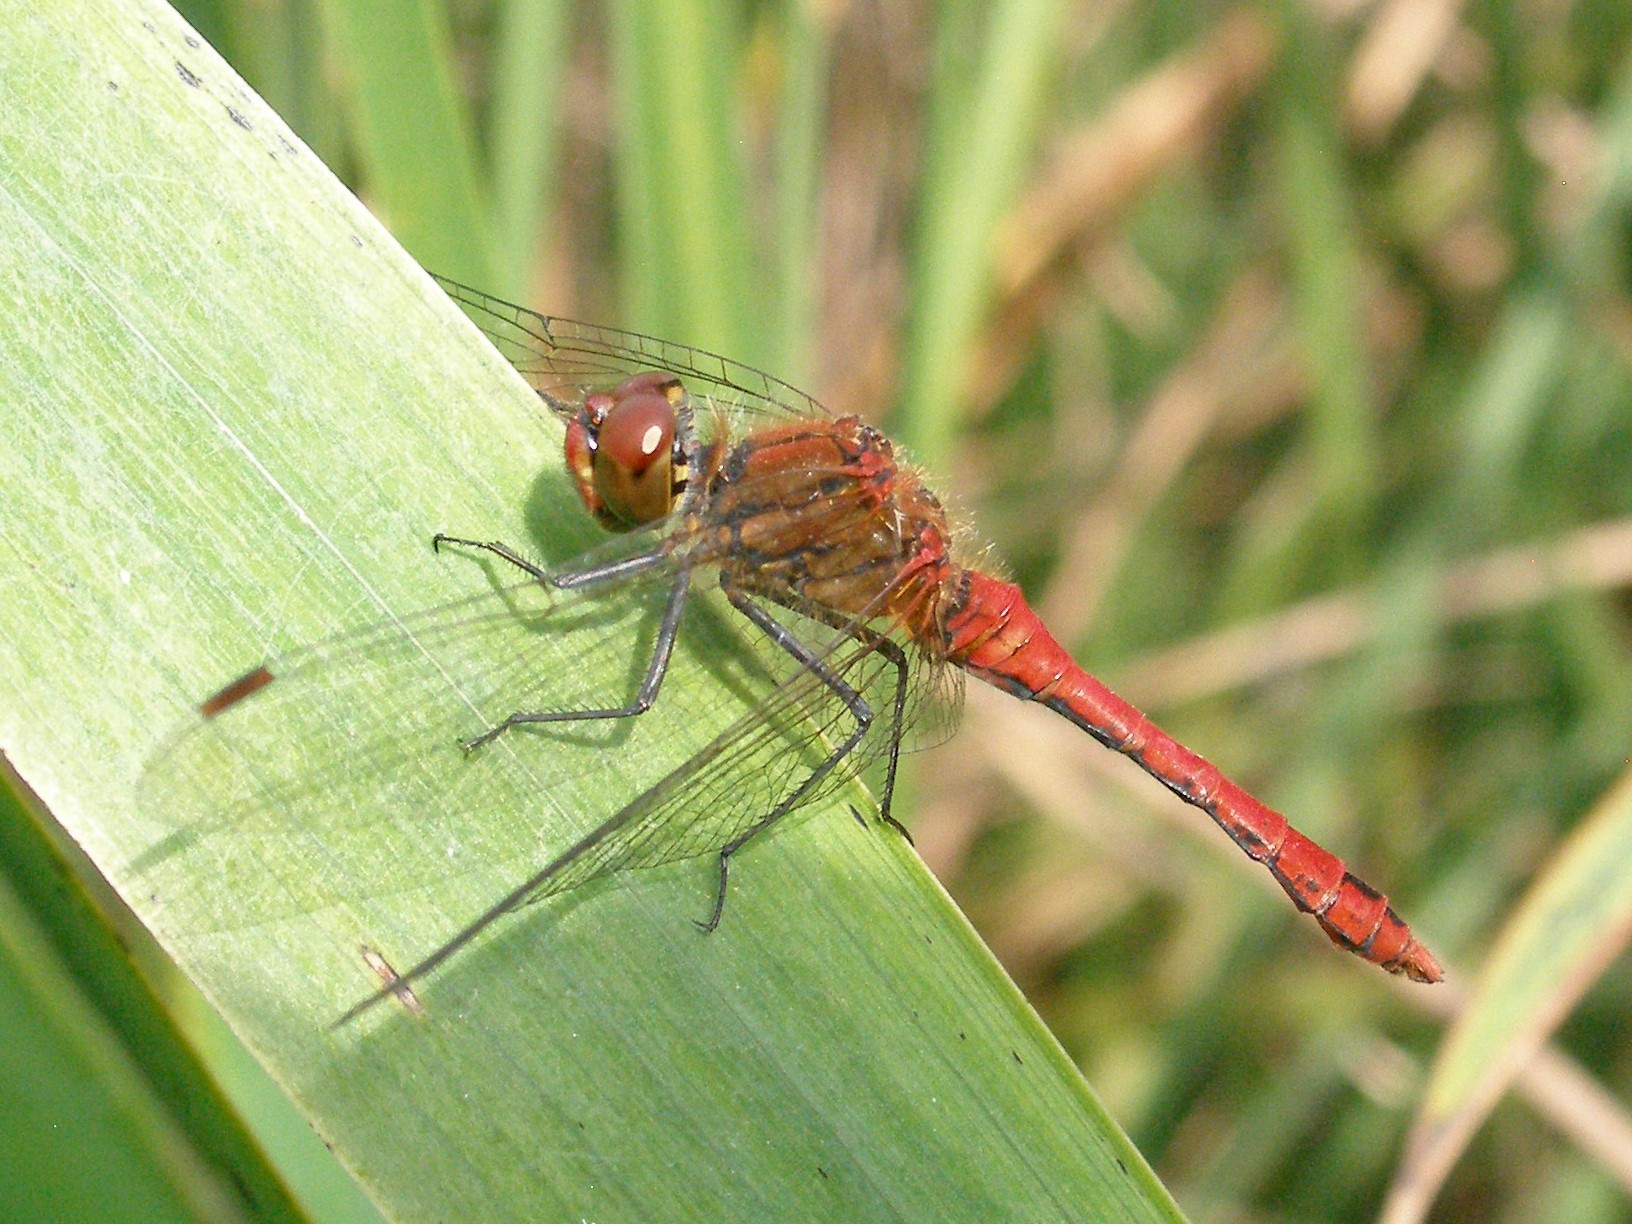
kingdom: Animalia
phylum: Arthropoda
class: Insecta
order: Odonata
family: Libellulidae
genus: Sympetrum
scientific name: Sympetrum sanguineum
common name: Ruddy darter
